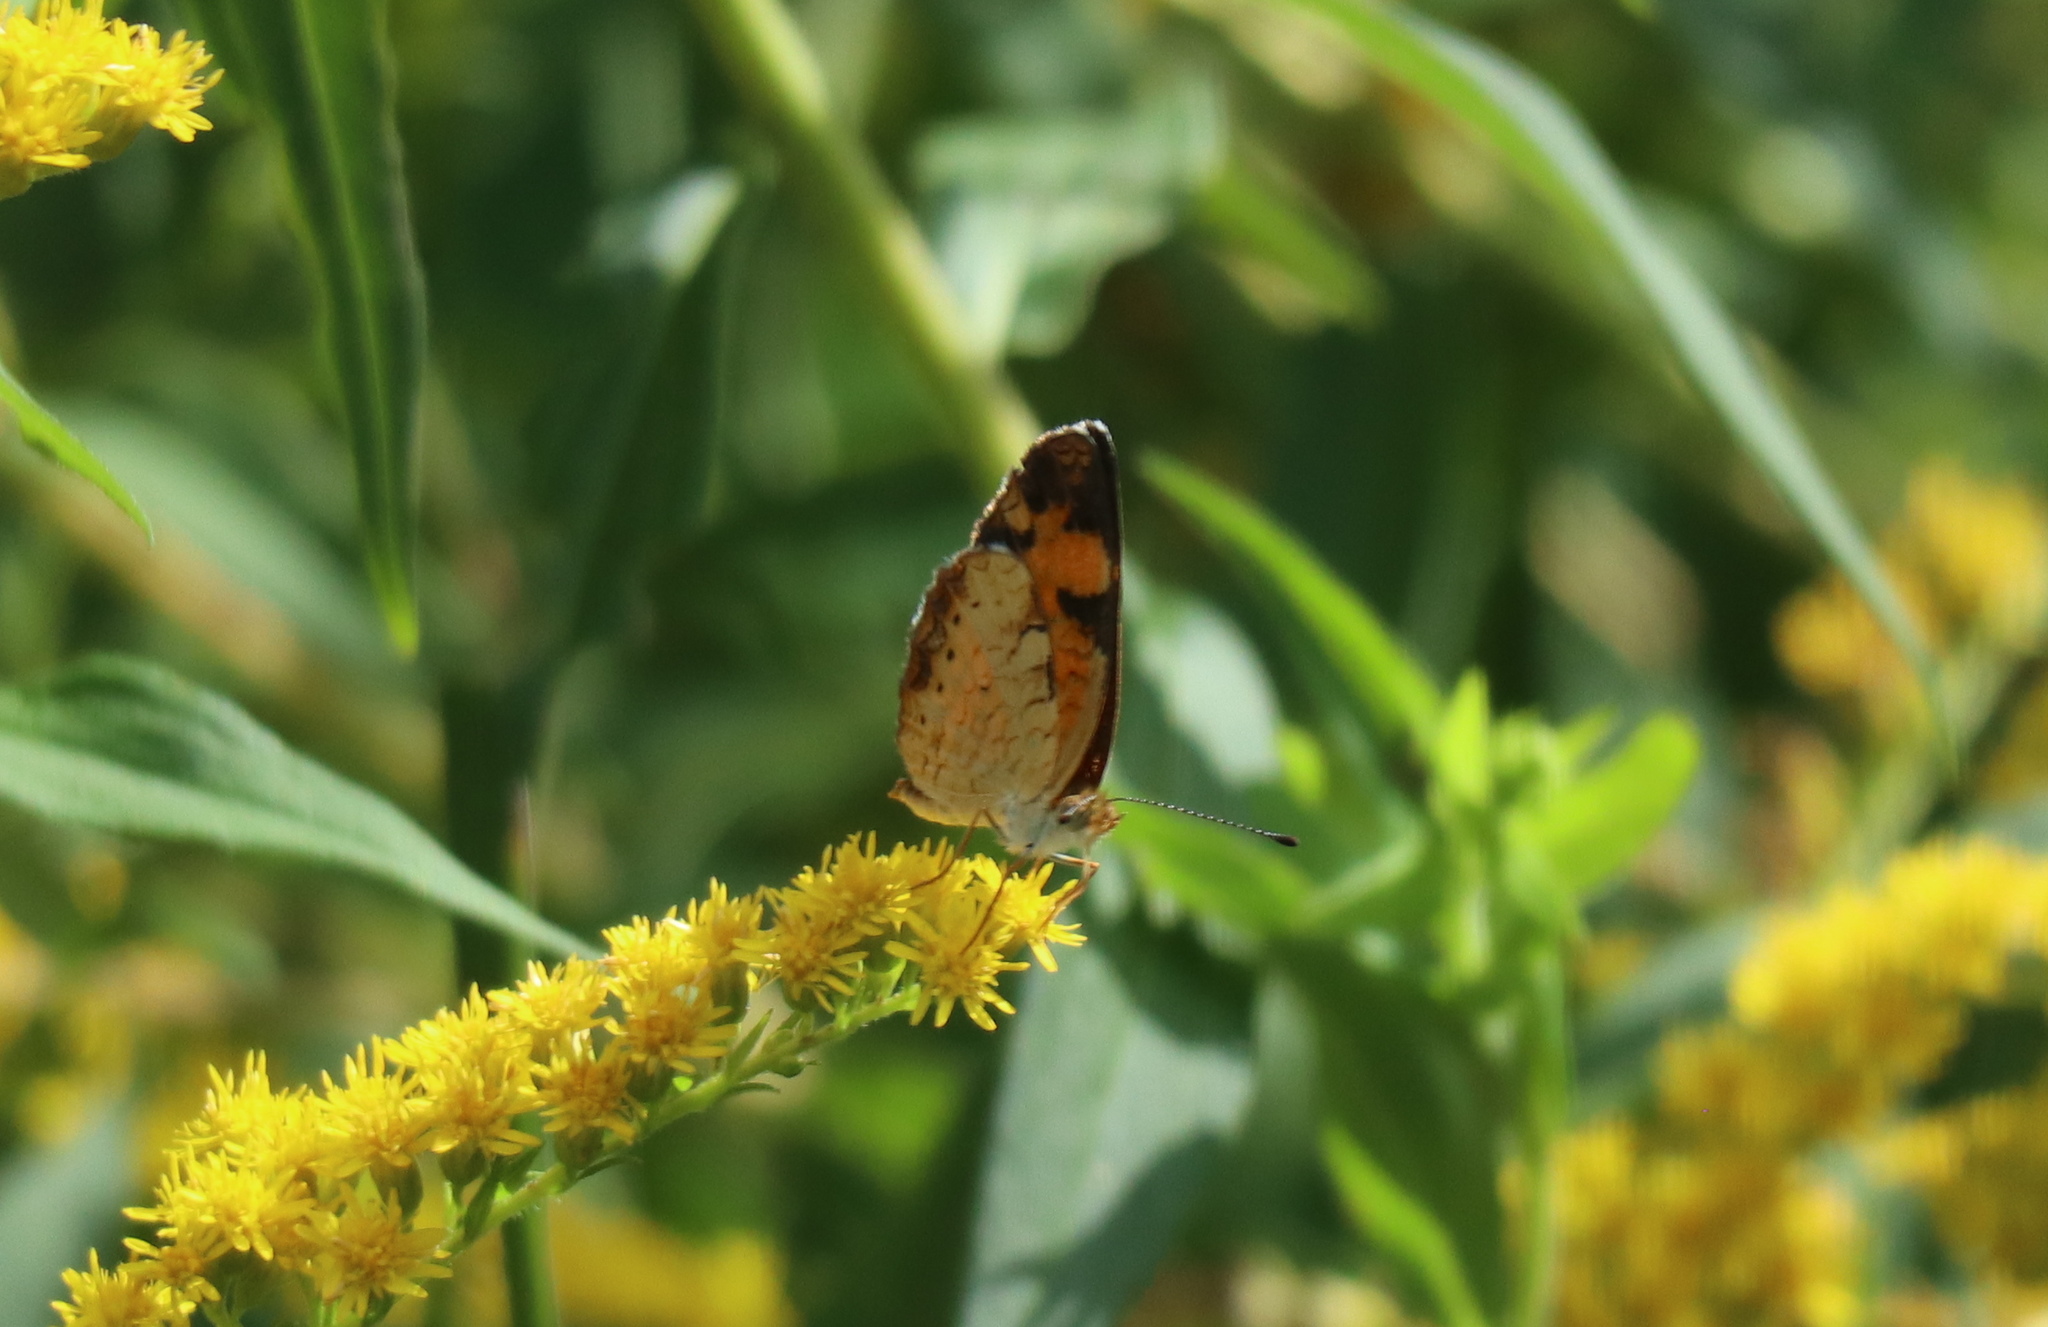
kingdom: Animalia
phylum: Arthropoda
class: Insecta
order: Lepidoptera
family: Nymphalidae
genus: Phyciodes
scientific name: Phyciodes tharos
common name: Pearl crescent
